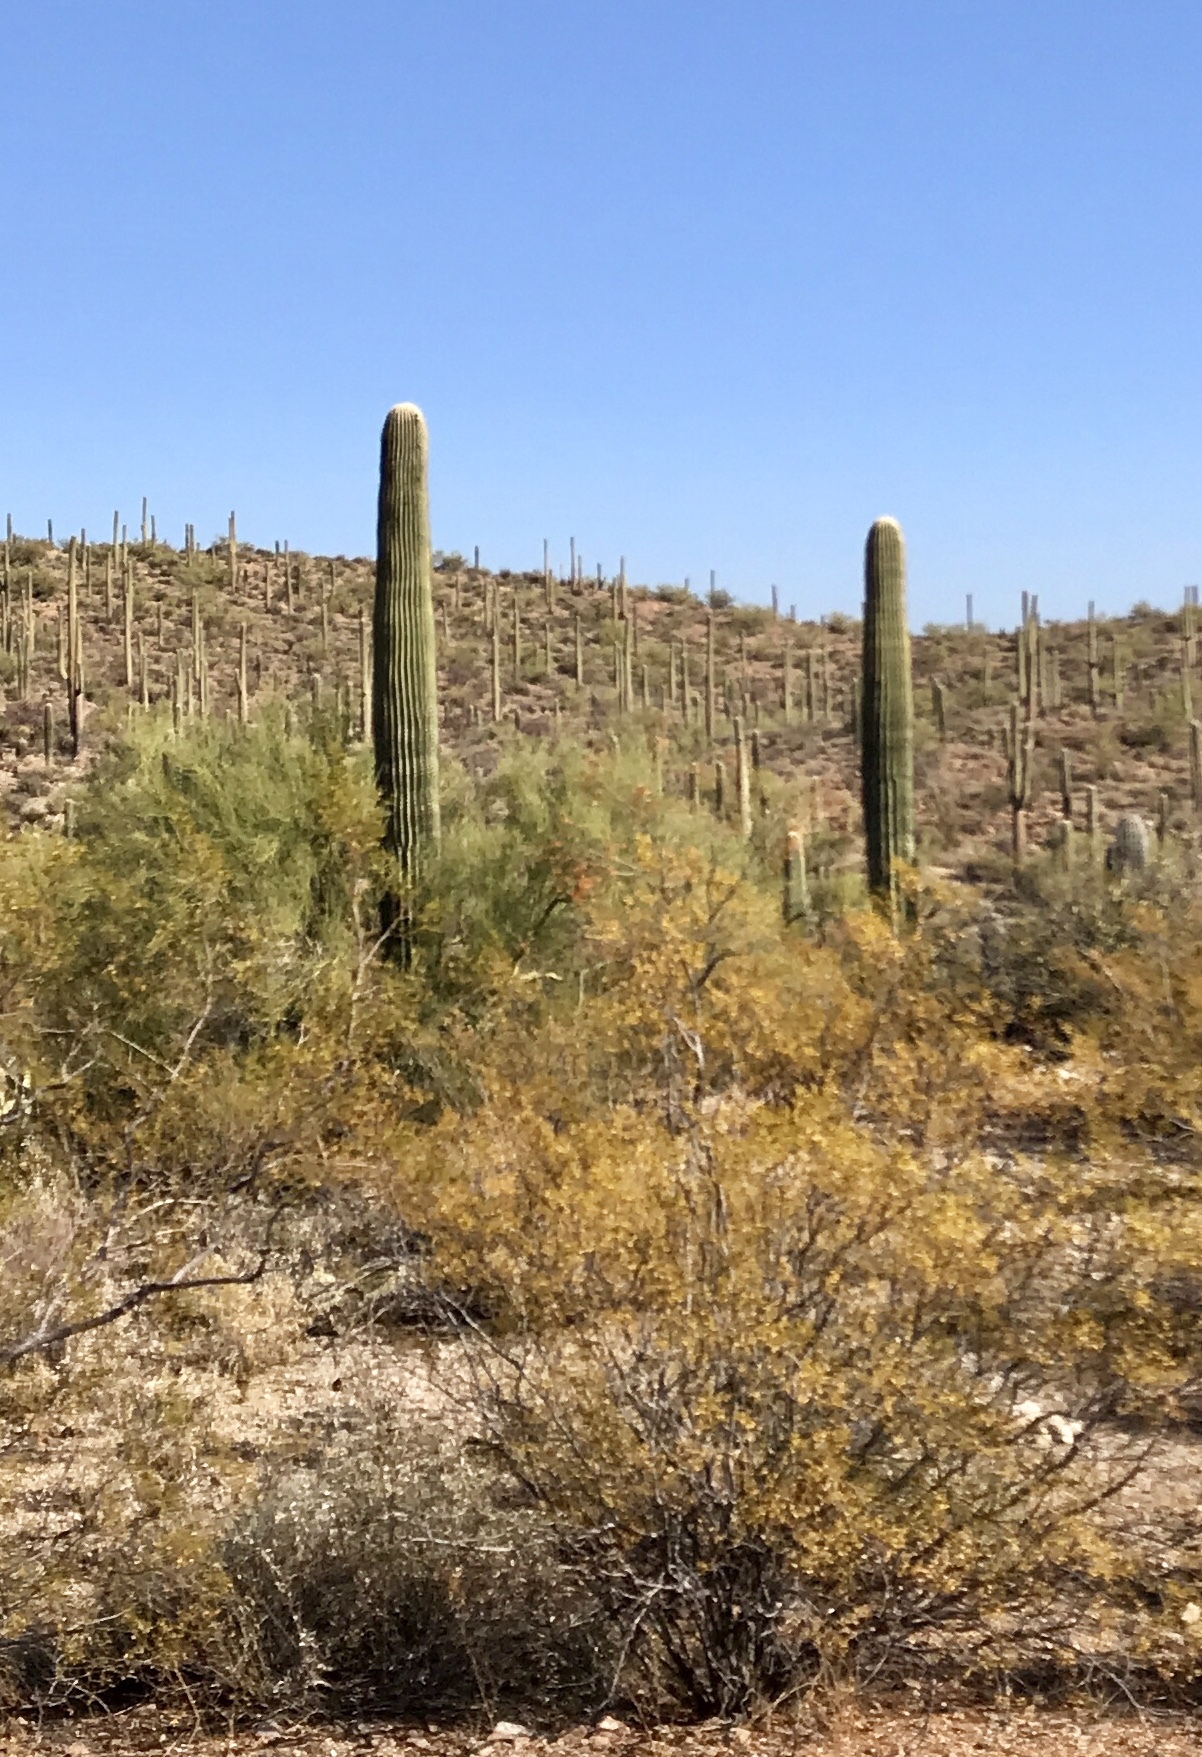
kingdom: Plantae
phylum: Tracheophyta
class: Magnoliopsida
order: Zygophyllales
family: Zygophyllaceae
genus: Larrea
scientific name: Larrea tridentata
